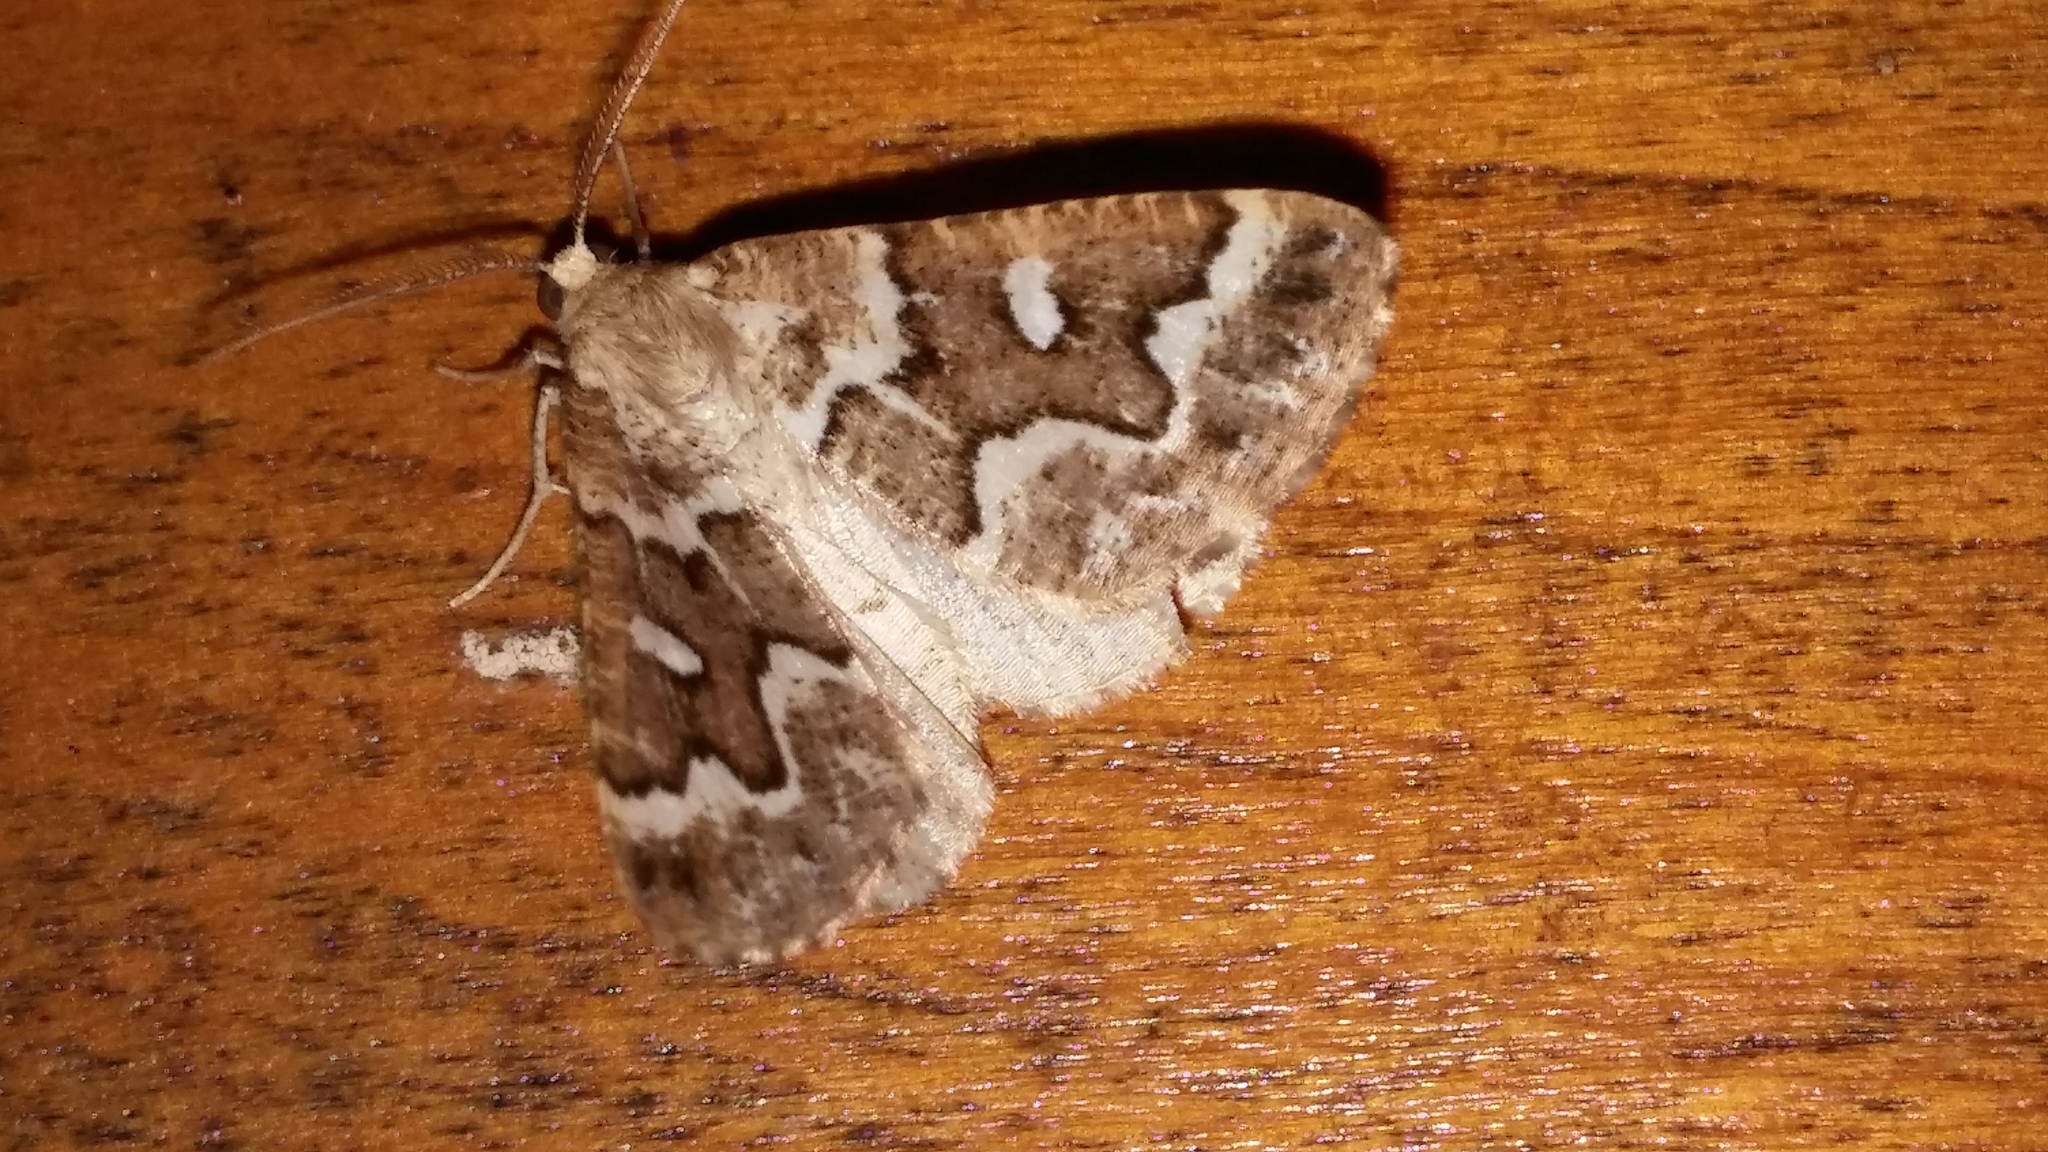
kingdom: Animalia
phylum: Arthropoda
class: Insecta
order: Lepidoptera
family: Geometridae
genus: Caripeta
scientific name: Caripeta divisata
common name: Gray spruce looper
